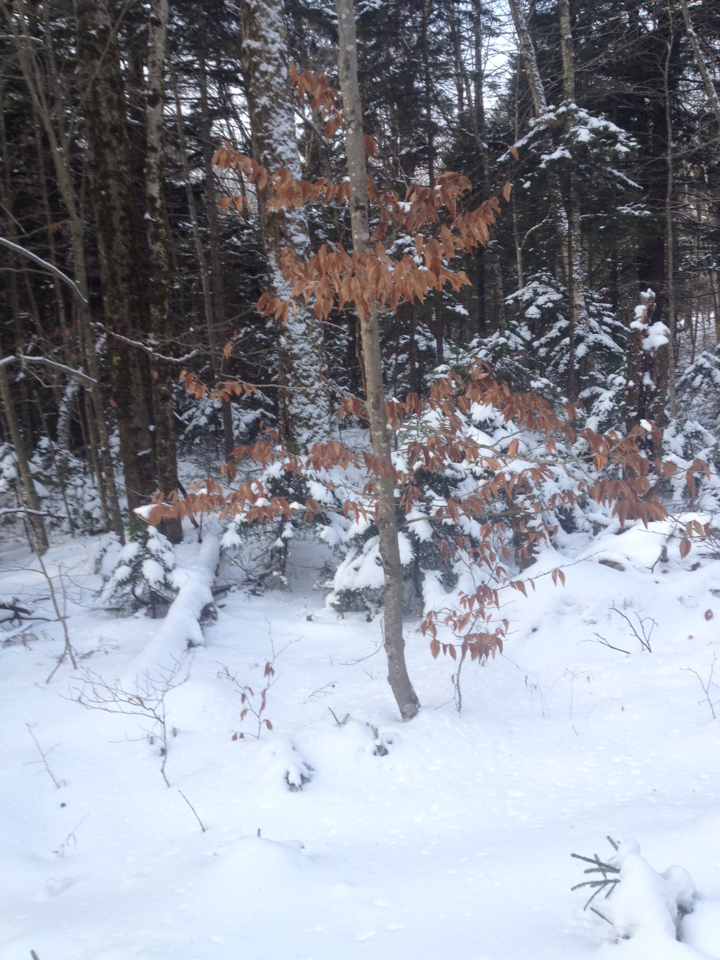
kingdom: Plantae
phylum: Tracheophyta
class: Magnoliopsida
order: Fagales
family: Fagaceae
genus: Fagus
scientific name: Fagus grandifolia
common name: American beech
